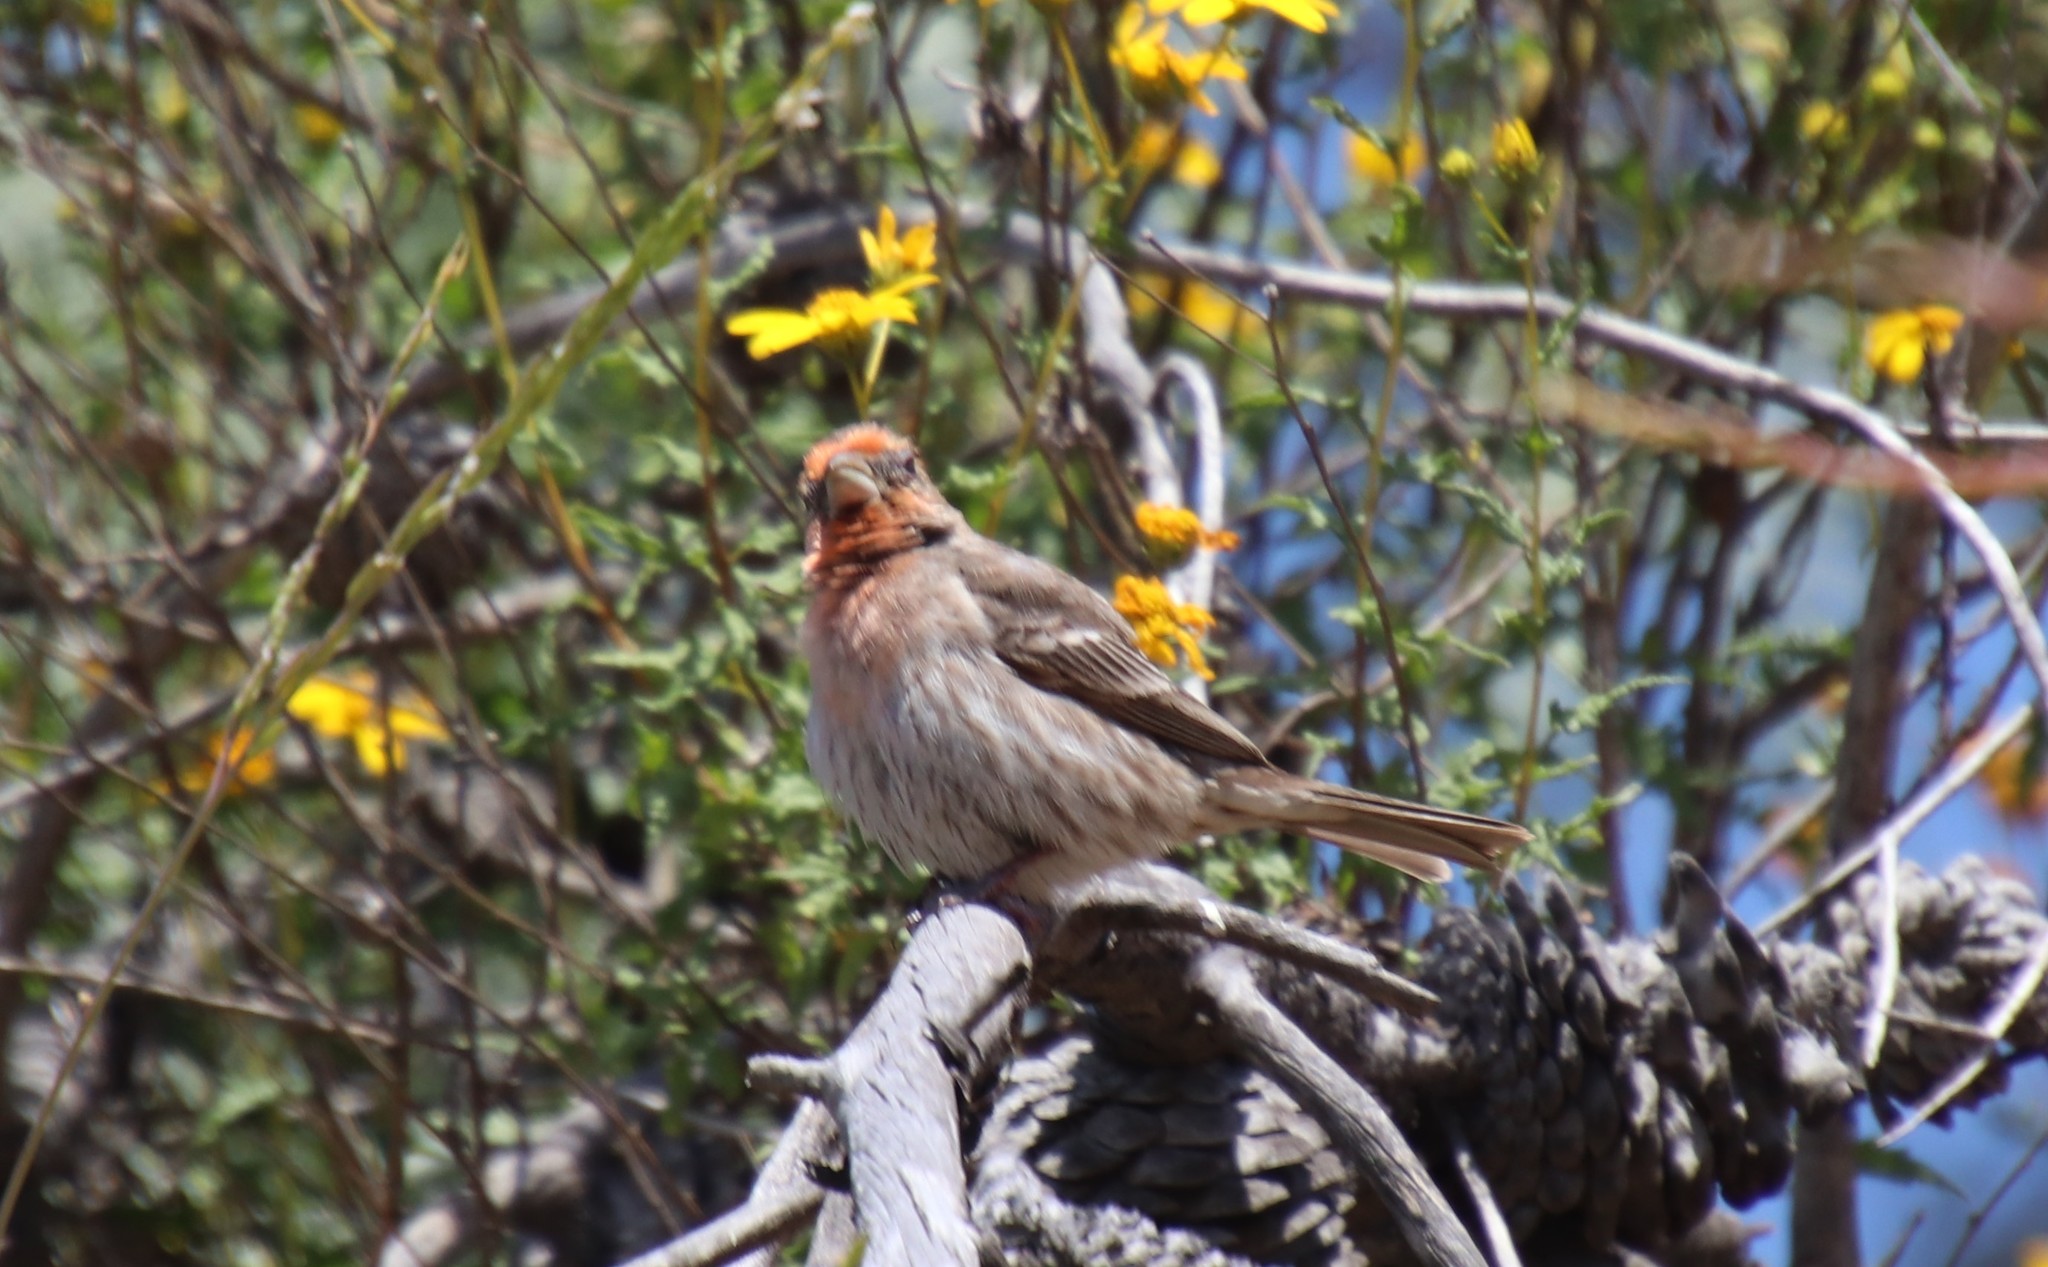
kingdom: Animalia
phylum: Chordata
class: Aves
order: Passeriformes
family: Fringillidae
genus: Haemorhous
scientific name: Haemorhous mexicanus
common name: House finch
